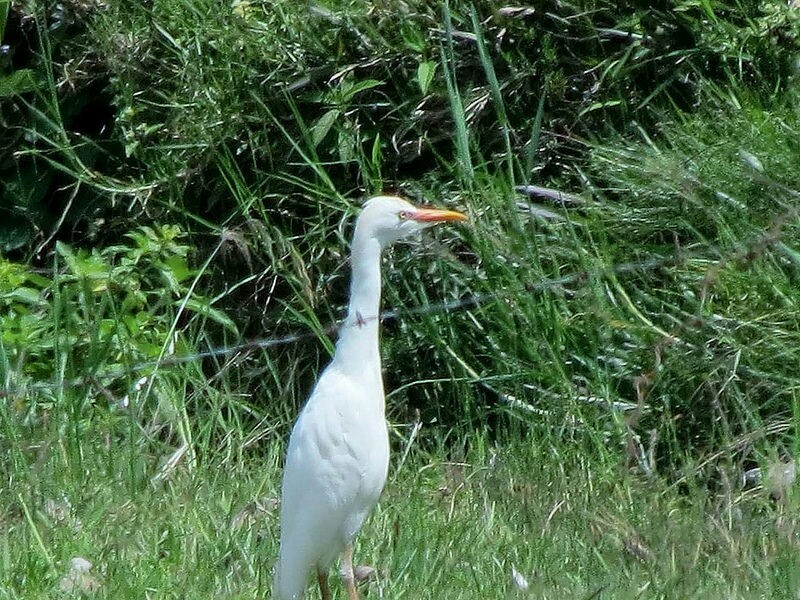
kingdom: Animalia
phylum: Chordata
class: Aves
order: Pelecaniformes
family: Ardeidae
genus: Bubulcus
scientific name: Bubulcus ibis
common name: Cattle egret
